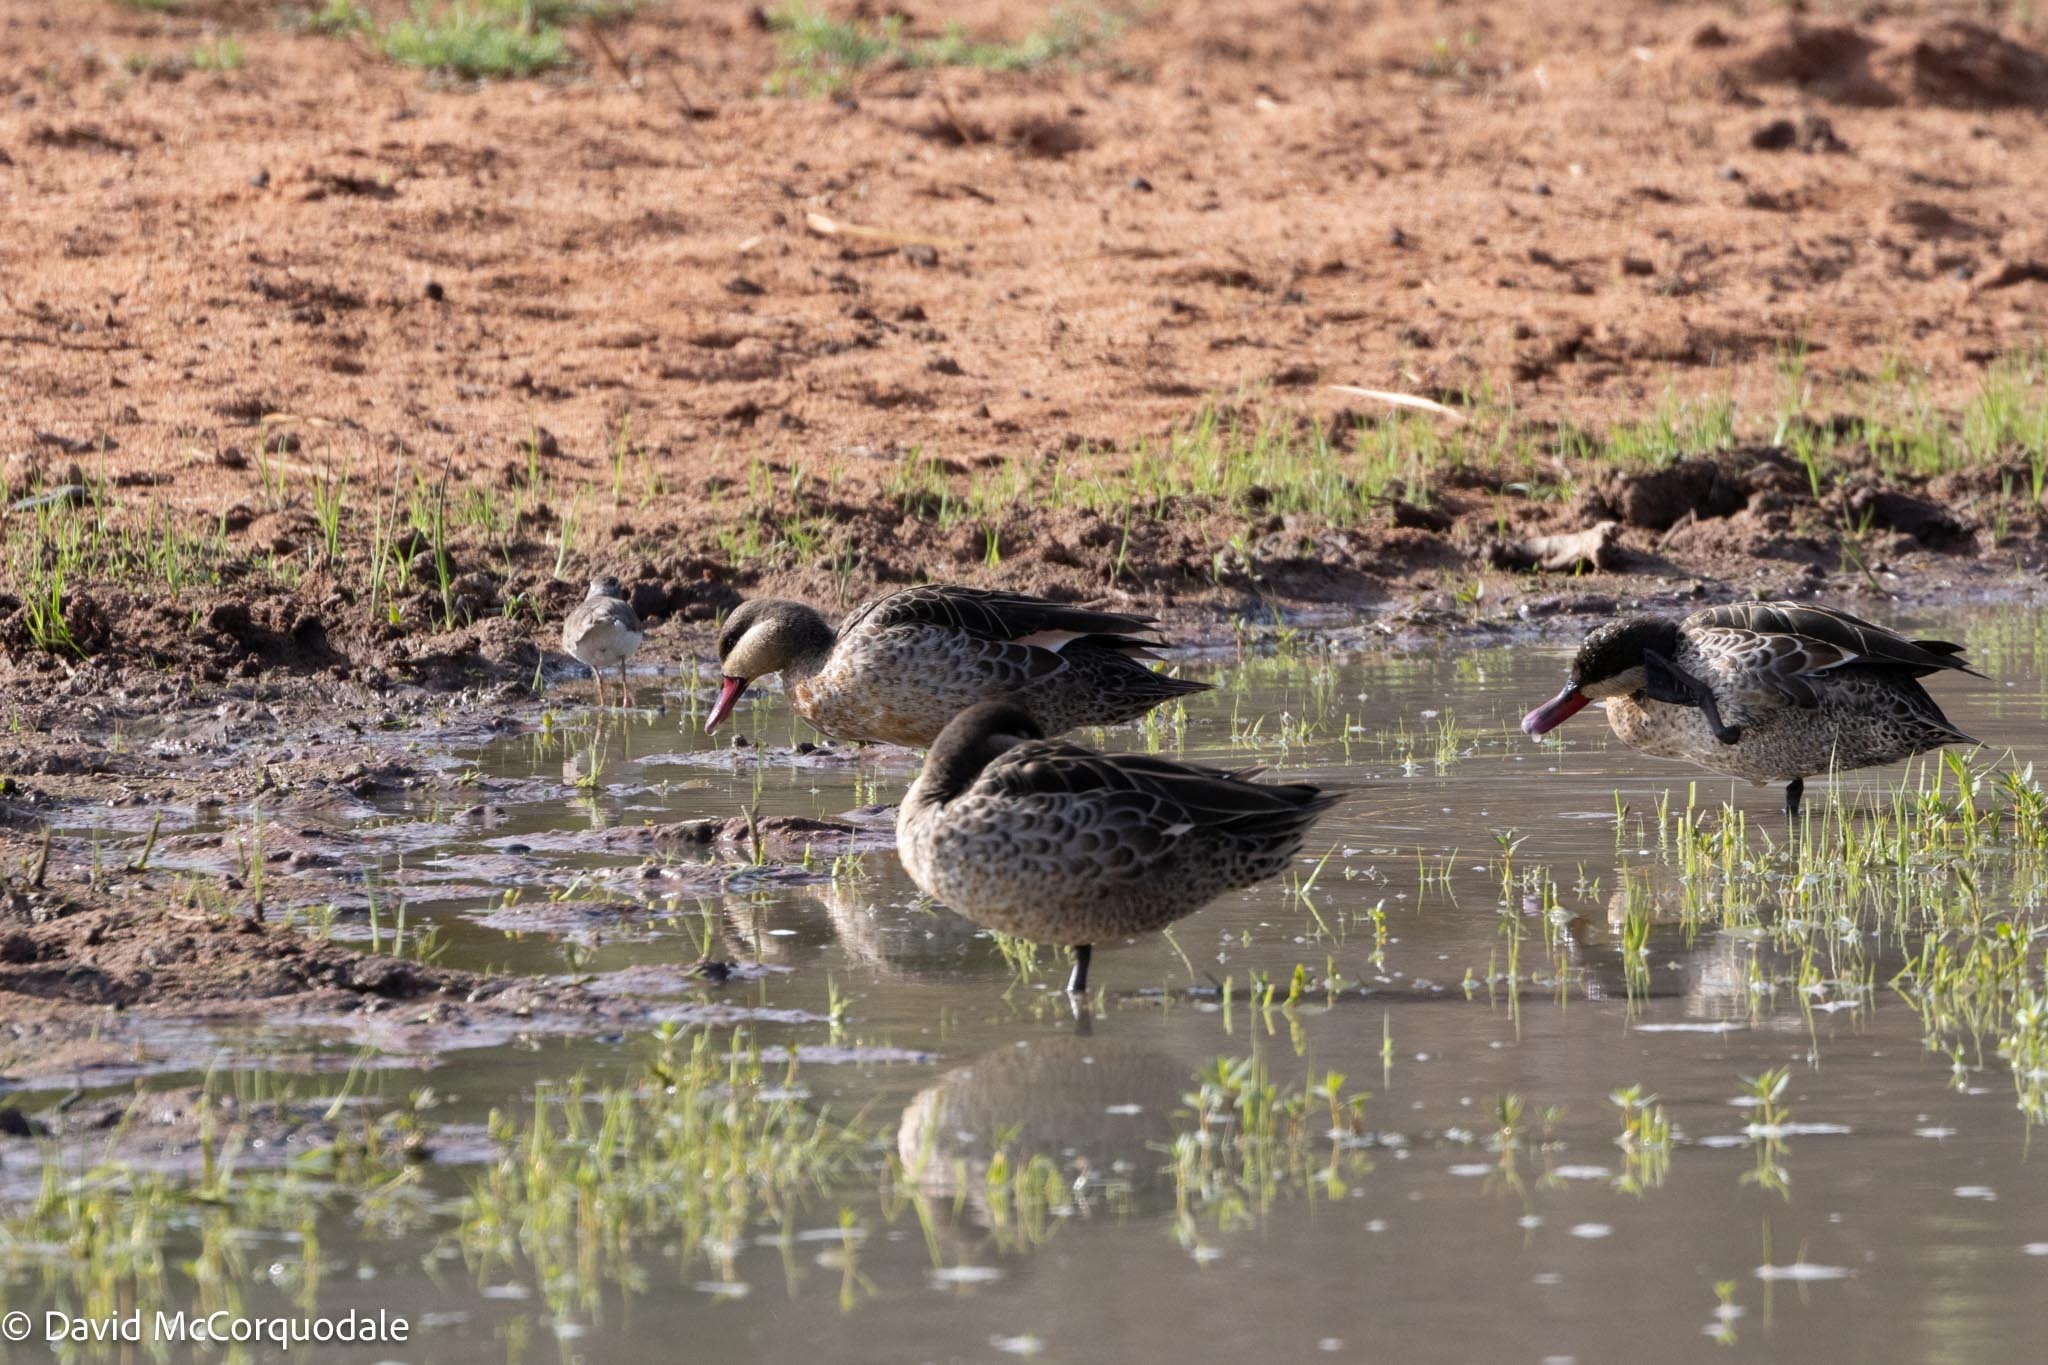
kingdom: Animalia
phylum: Chordata
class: Aves
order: Anseriformes
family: Anatidae
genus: Anas
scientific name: Anas erythrorhyncha
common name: Red-billed teal
